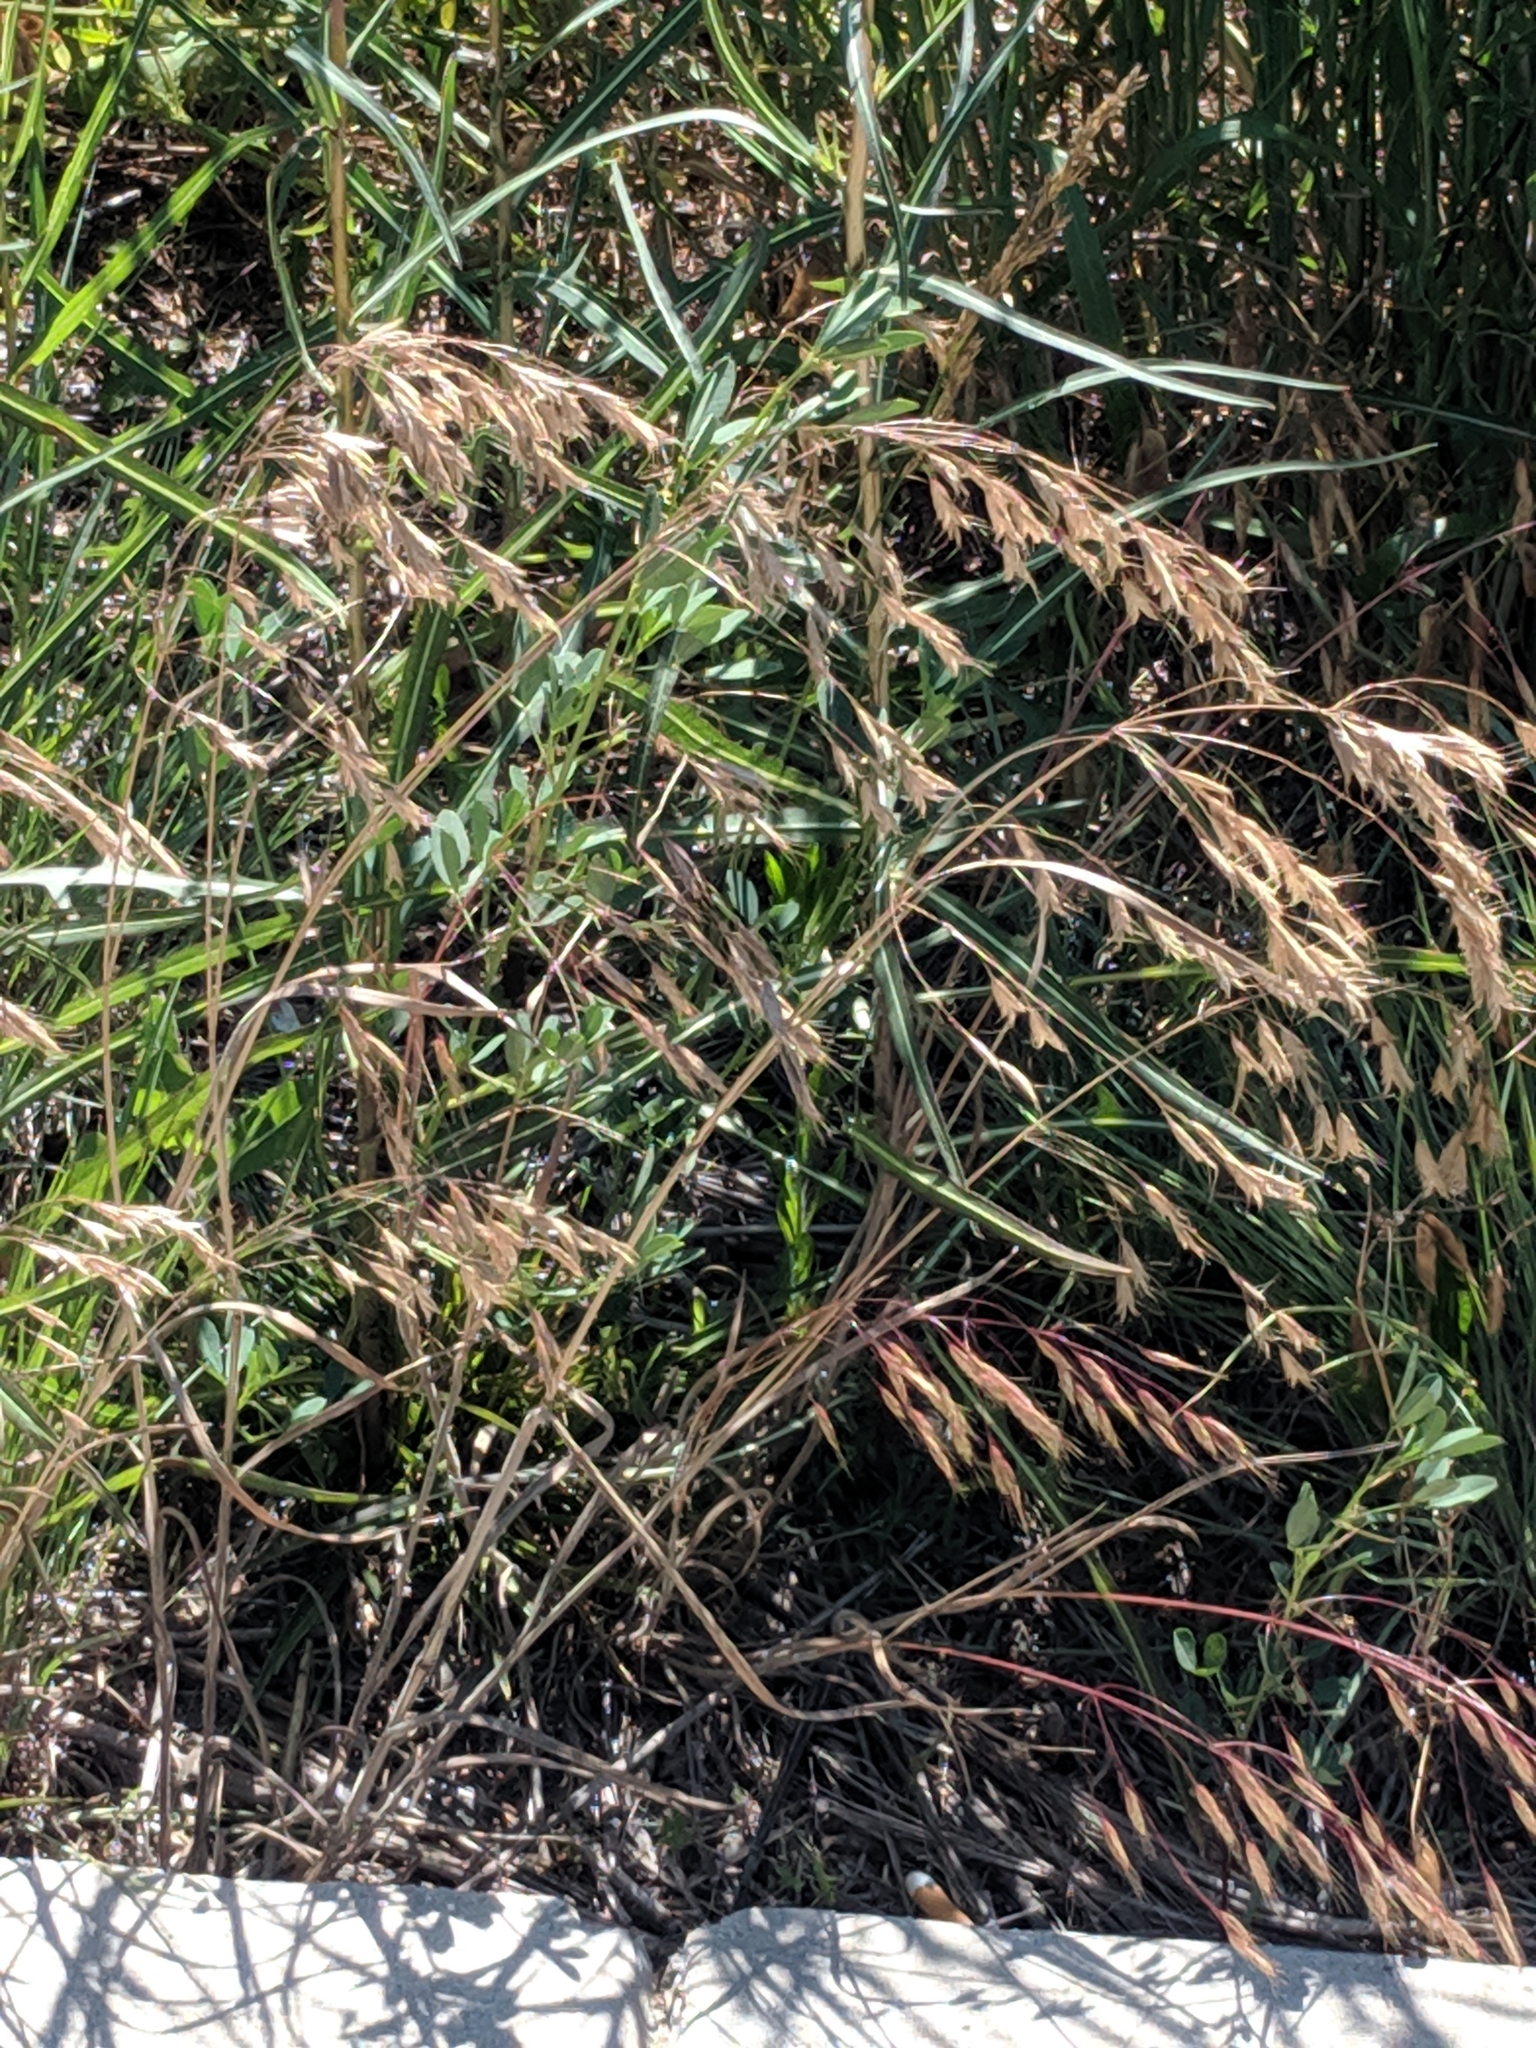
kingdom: Plantae
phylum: Tracheophyta
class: Liliopsida
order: Poales
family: Poaceae
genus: Bromus
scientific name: Bromus tectorum
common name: Cheatgrass
